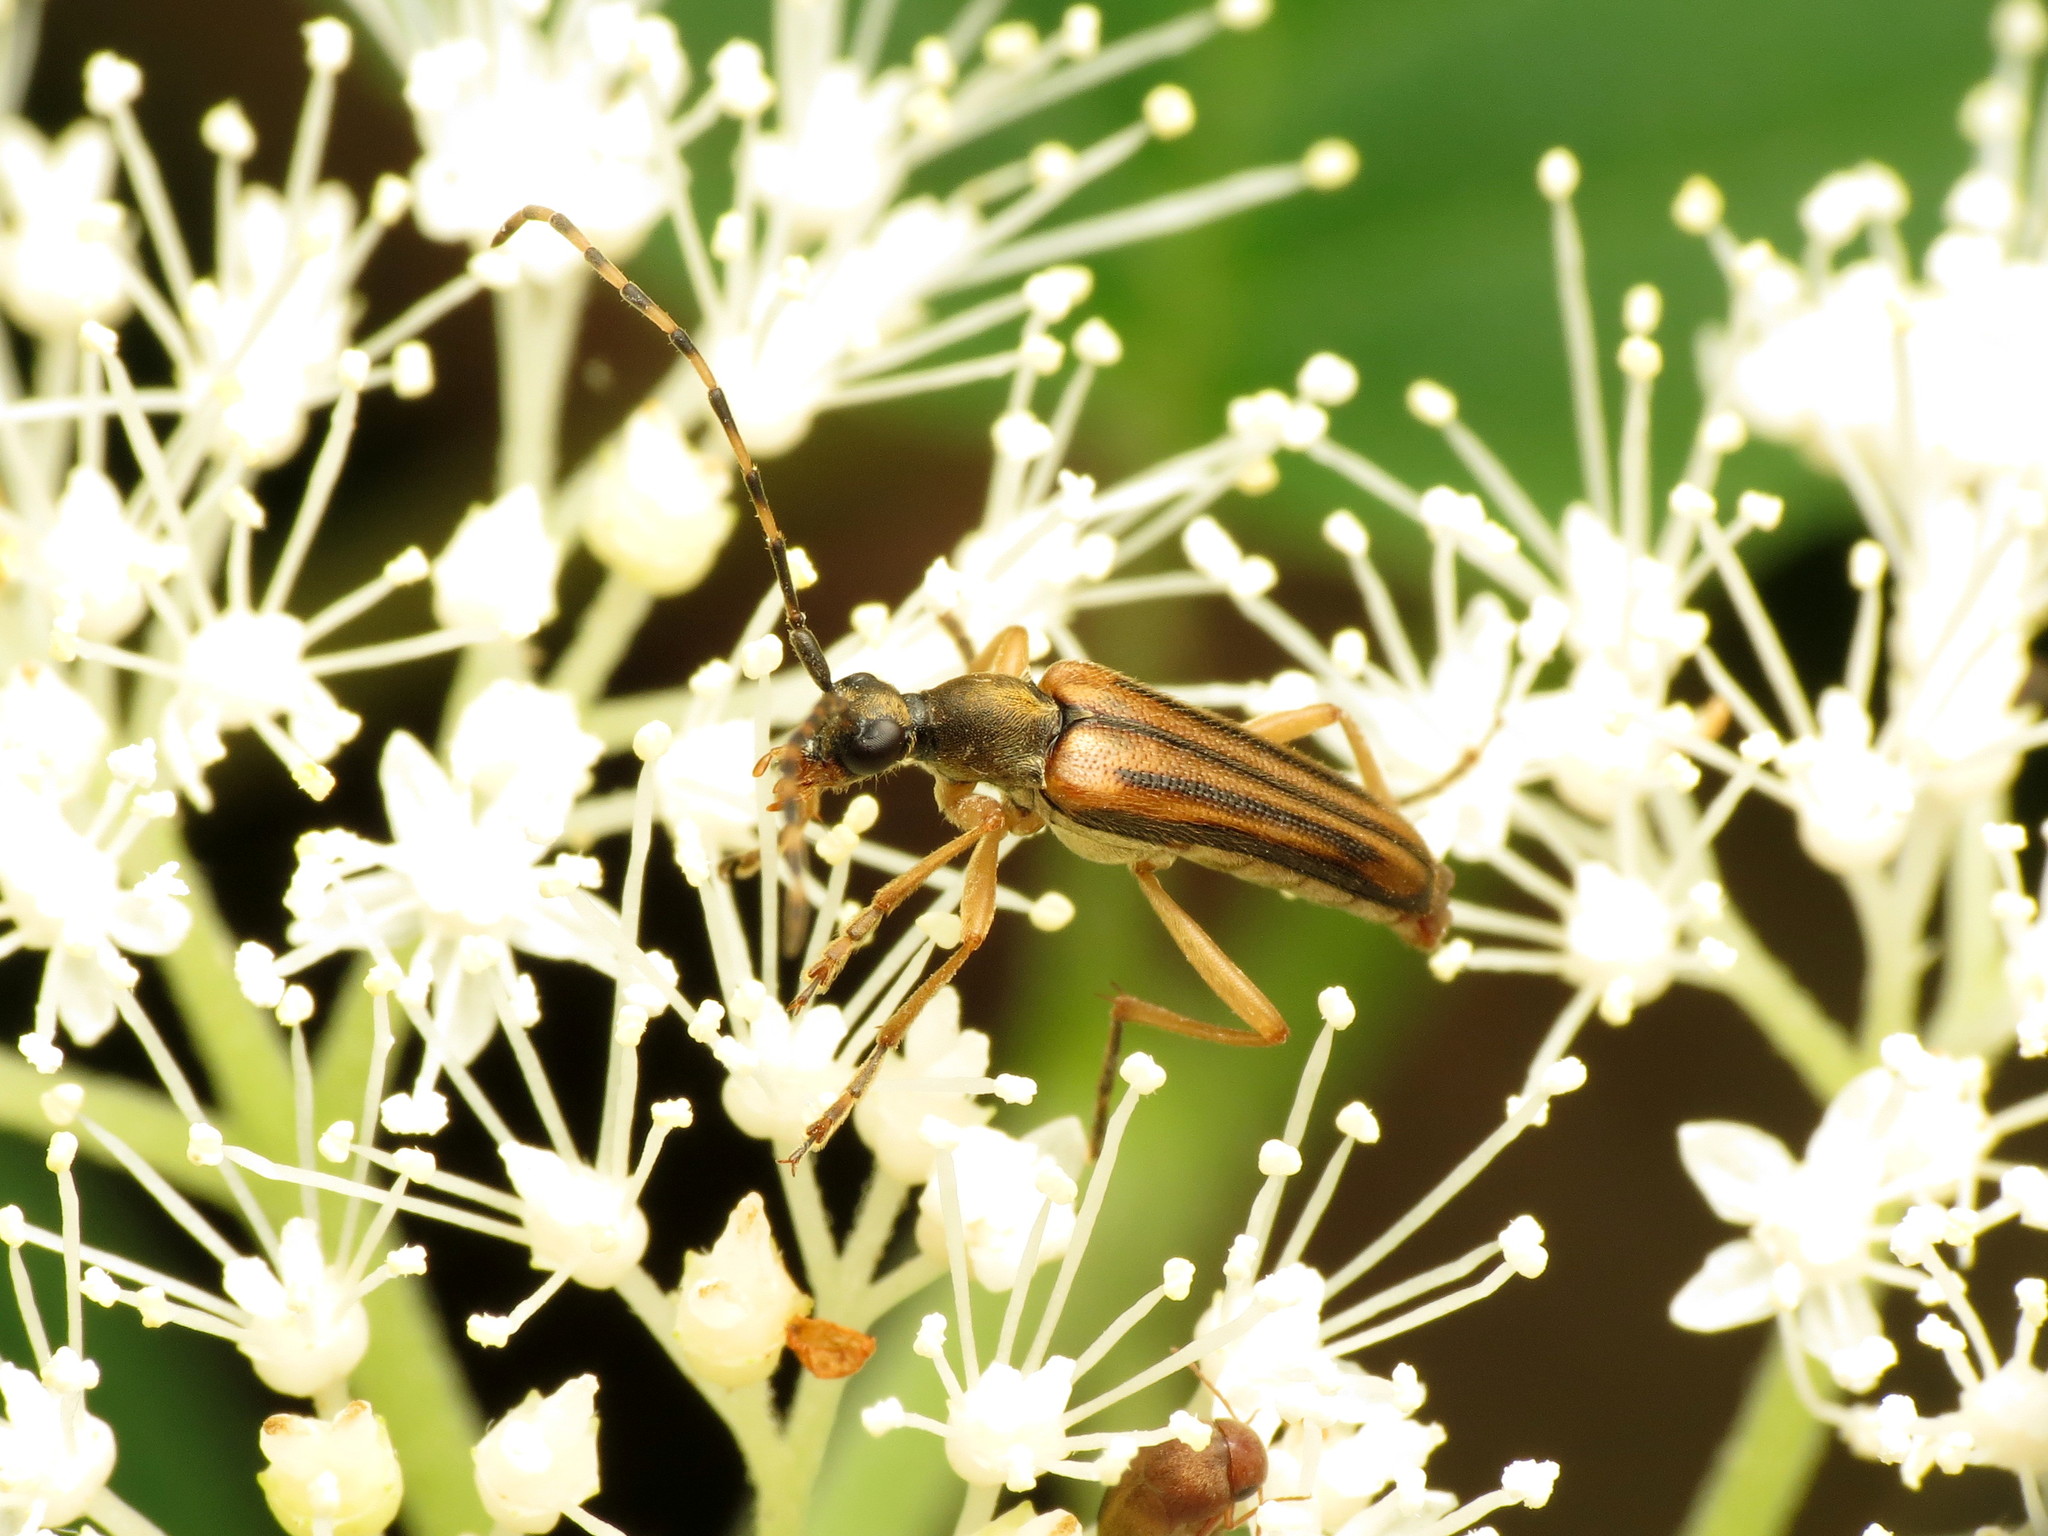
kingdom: Animalia
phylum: Arthropoda
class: Insecta
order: Coleoptera
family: Cerambycidae
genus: Analeptura
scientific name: Analeptura lineola
